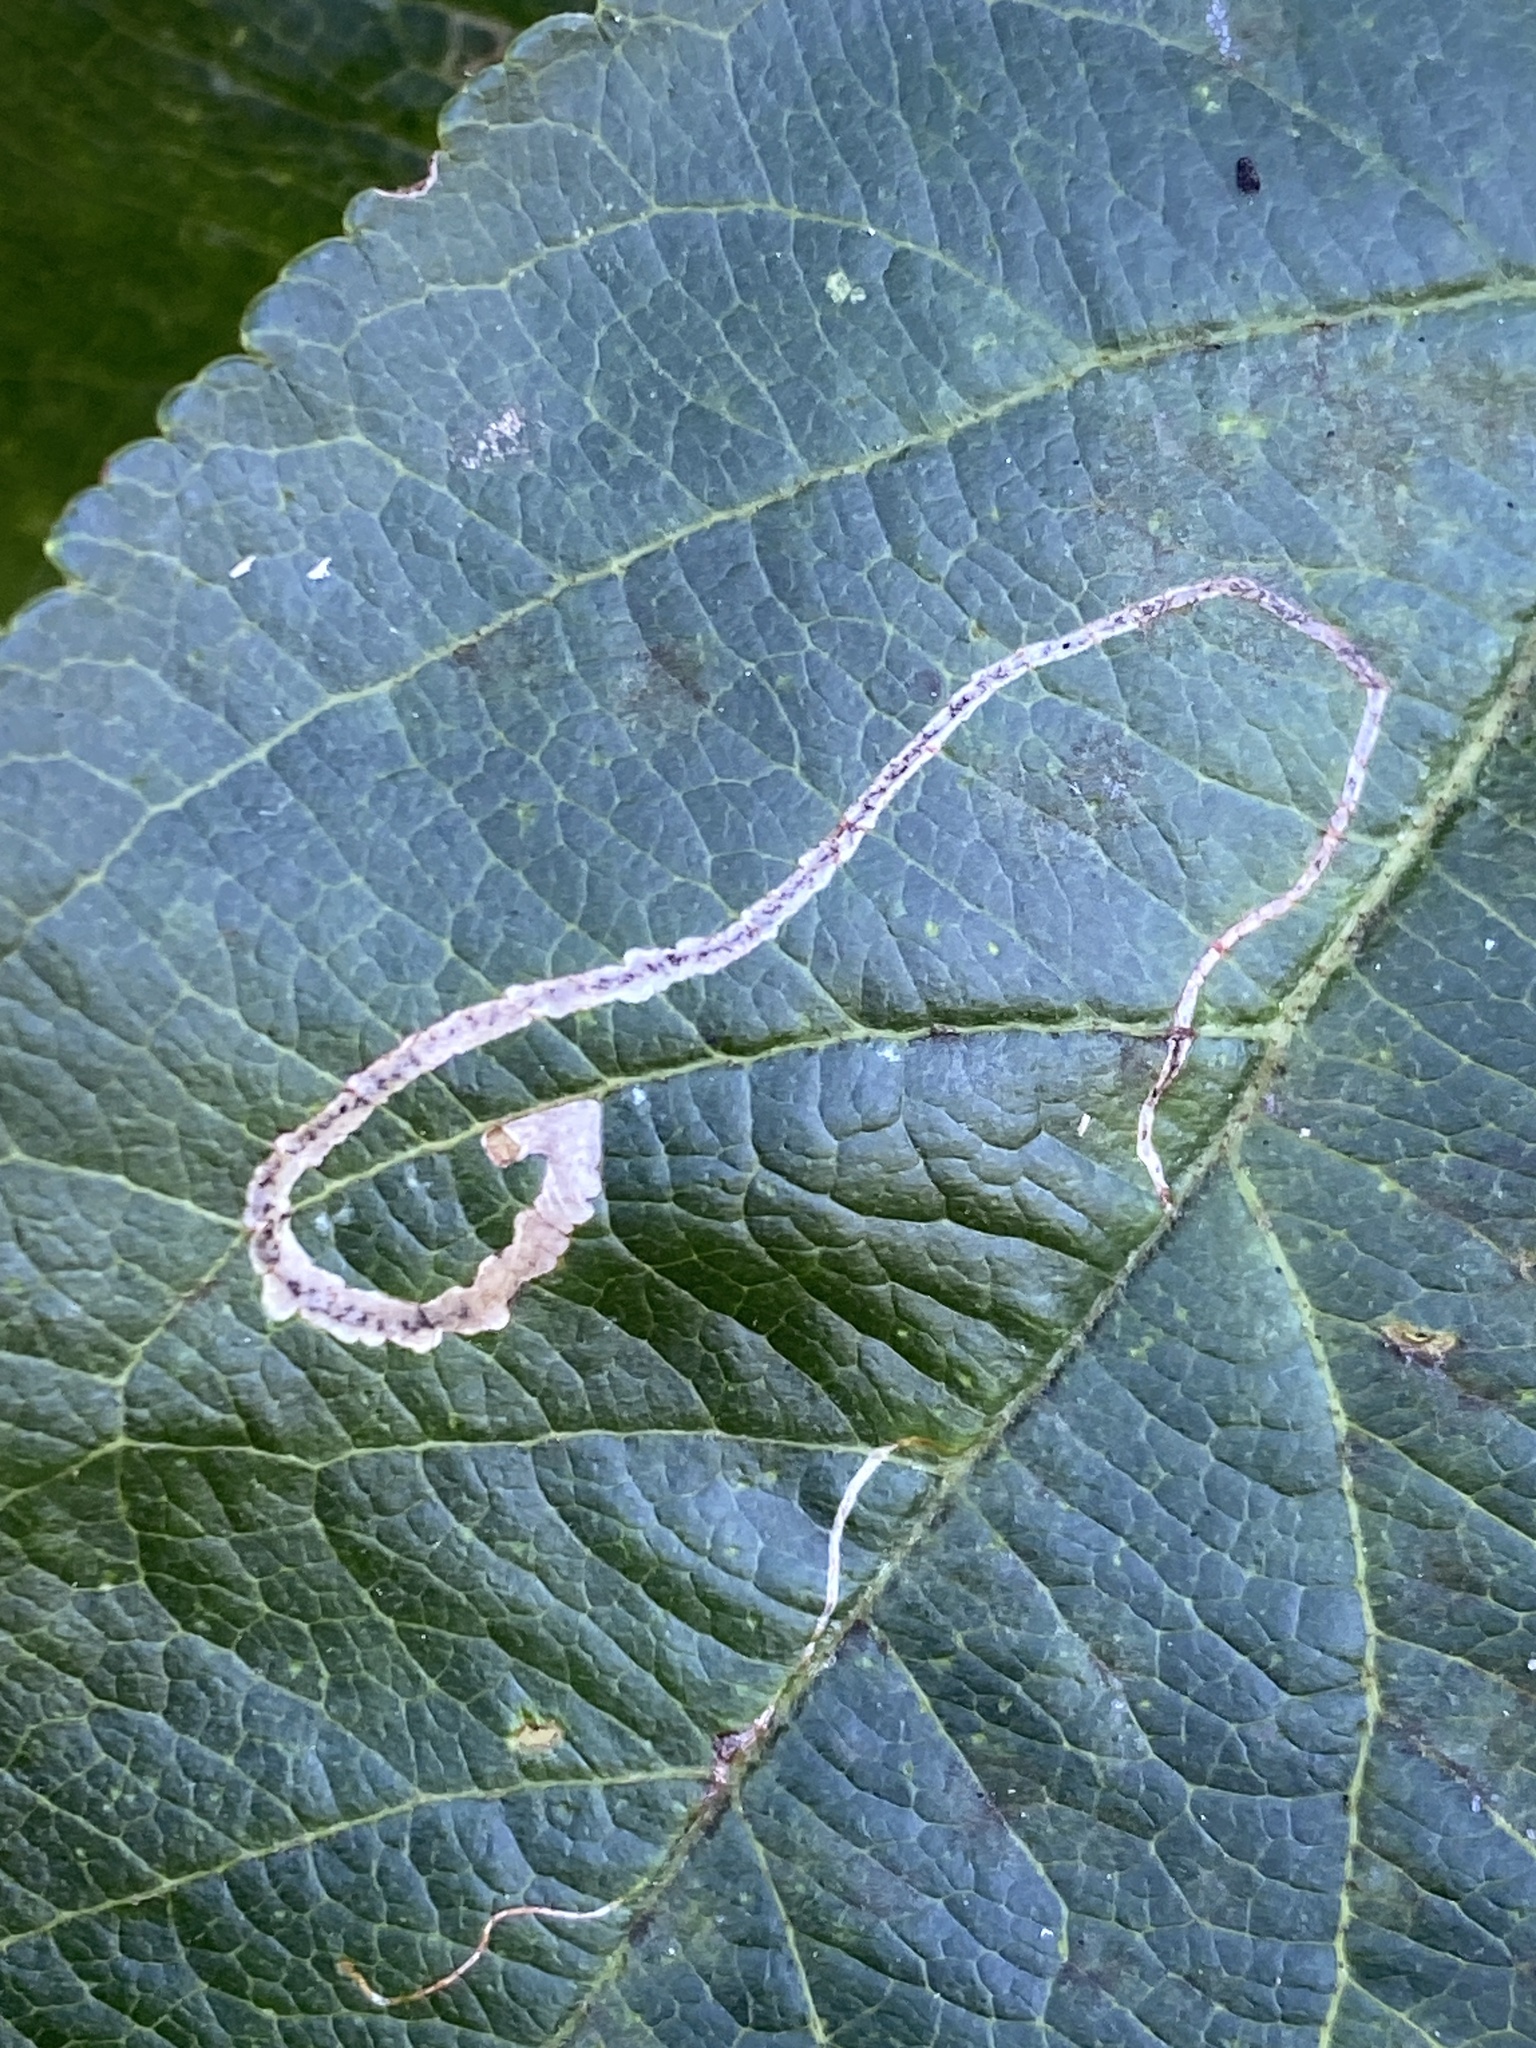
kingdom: Animalia
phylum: Arthropoda
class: Insecta
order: Lepidoptera
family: Lyonetiidae
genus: Lyonetia
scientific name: Lyonetia clerkella
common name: Apple leaf miner
